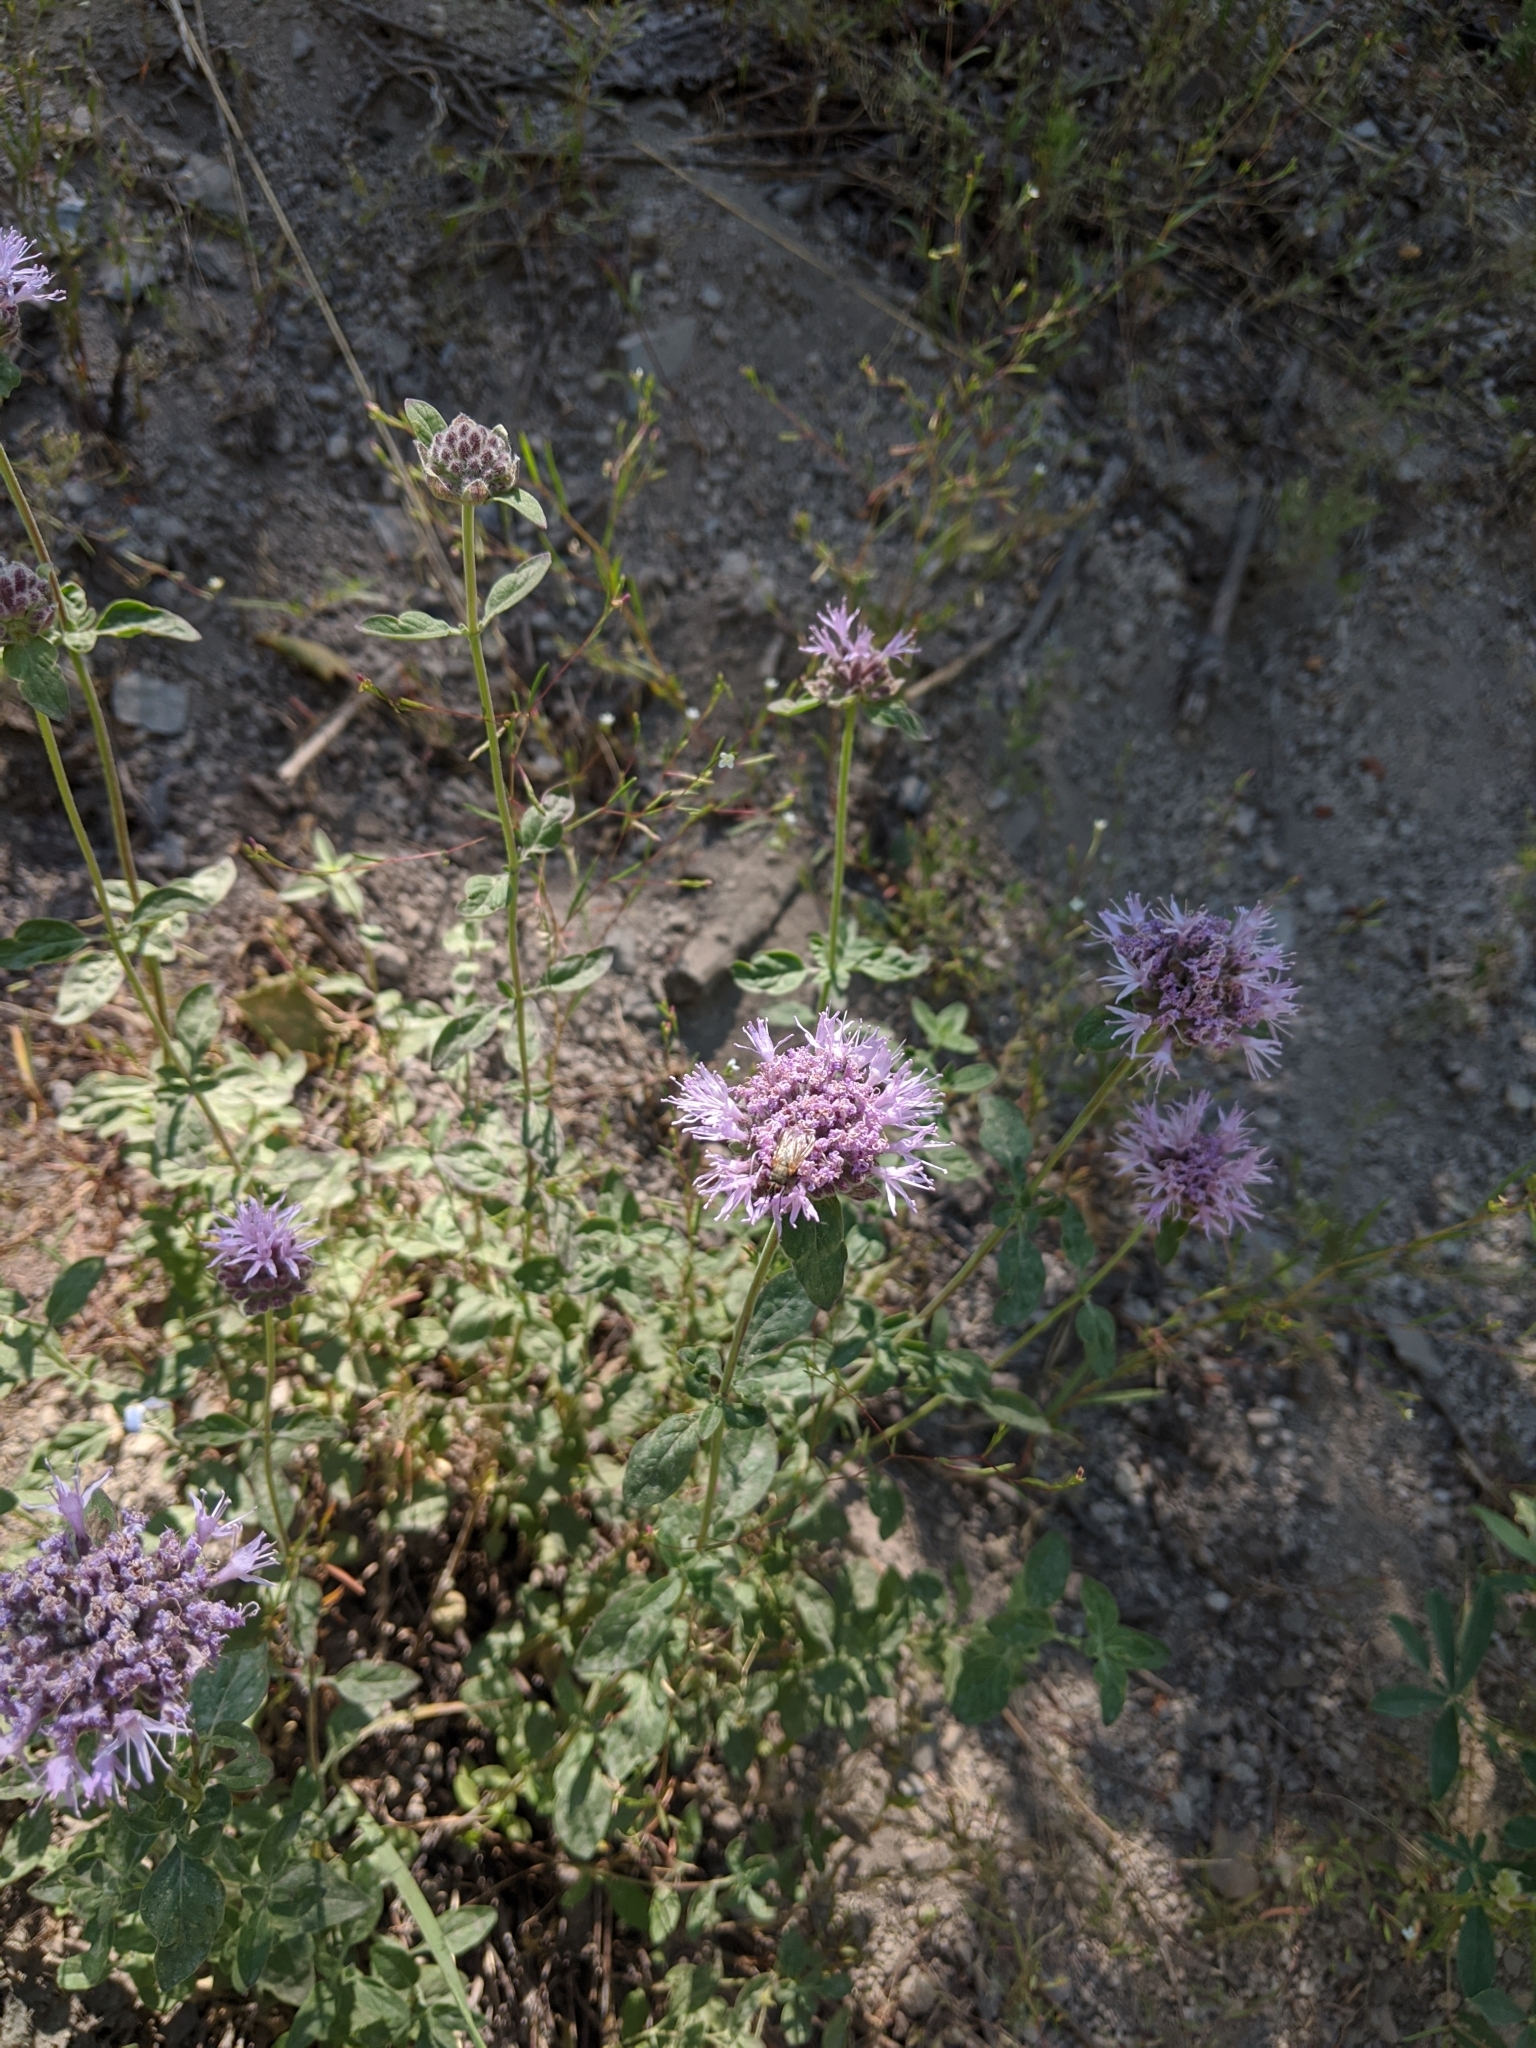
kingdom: Plantae
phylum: Tracheophyta
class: Magnoliopsida
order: Lamiales
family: Lamiaceae
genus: Monardella
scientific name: Monardella odoratissima
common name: Pacific monardella
